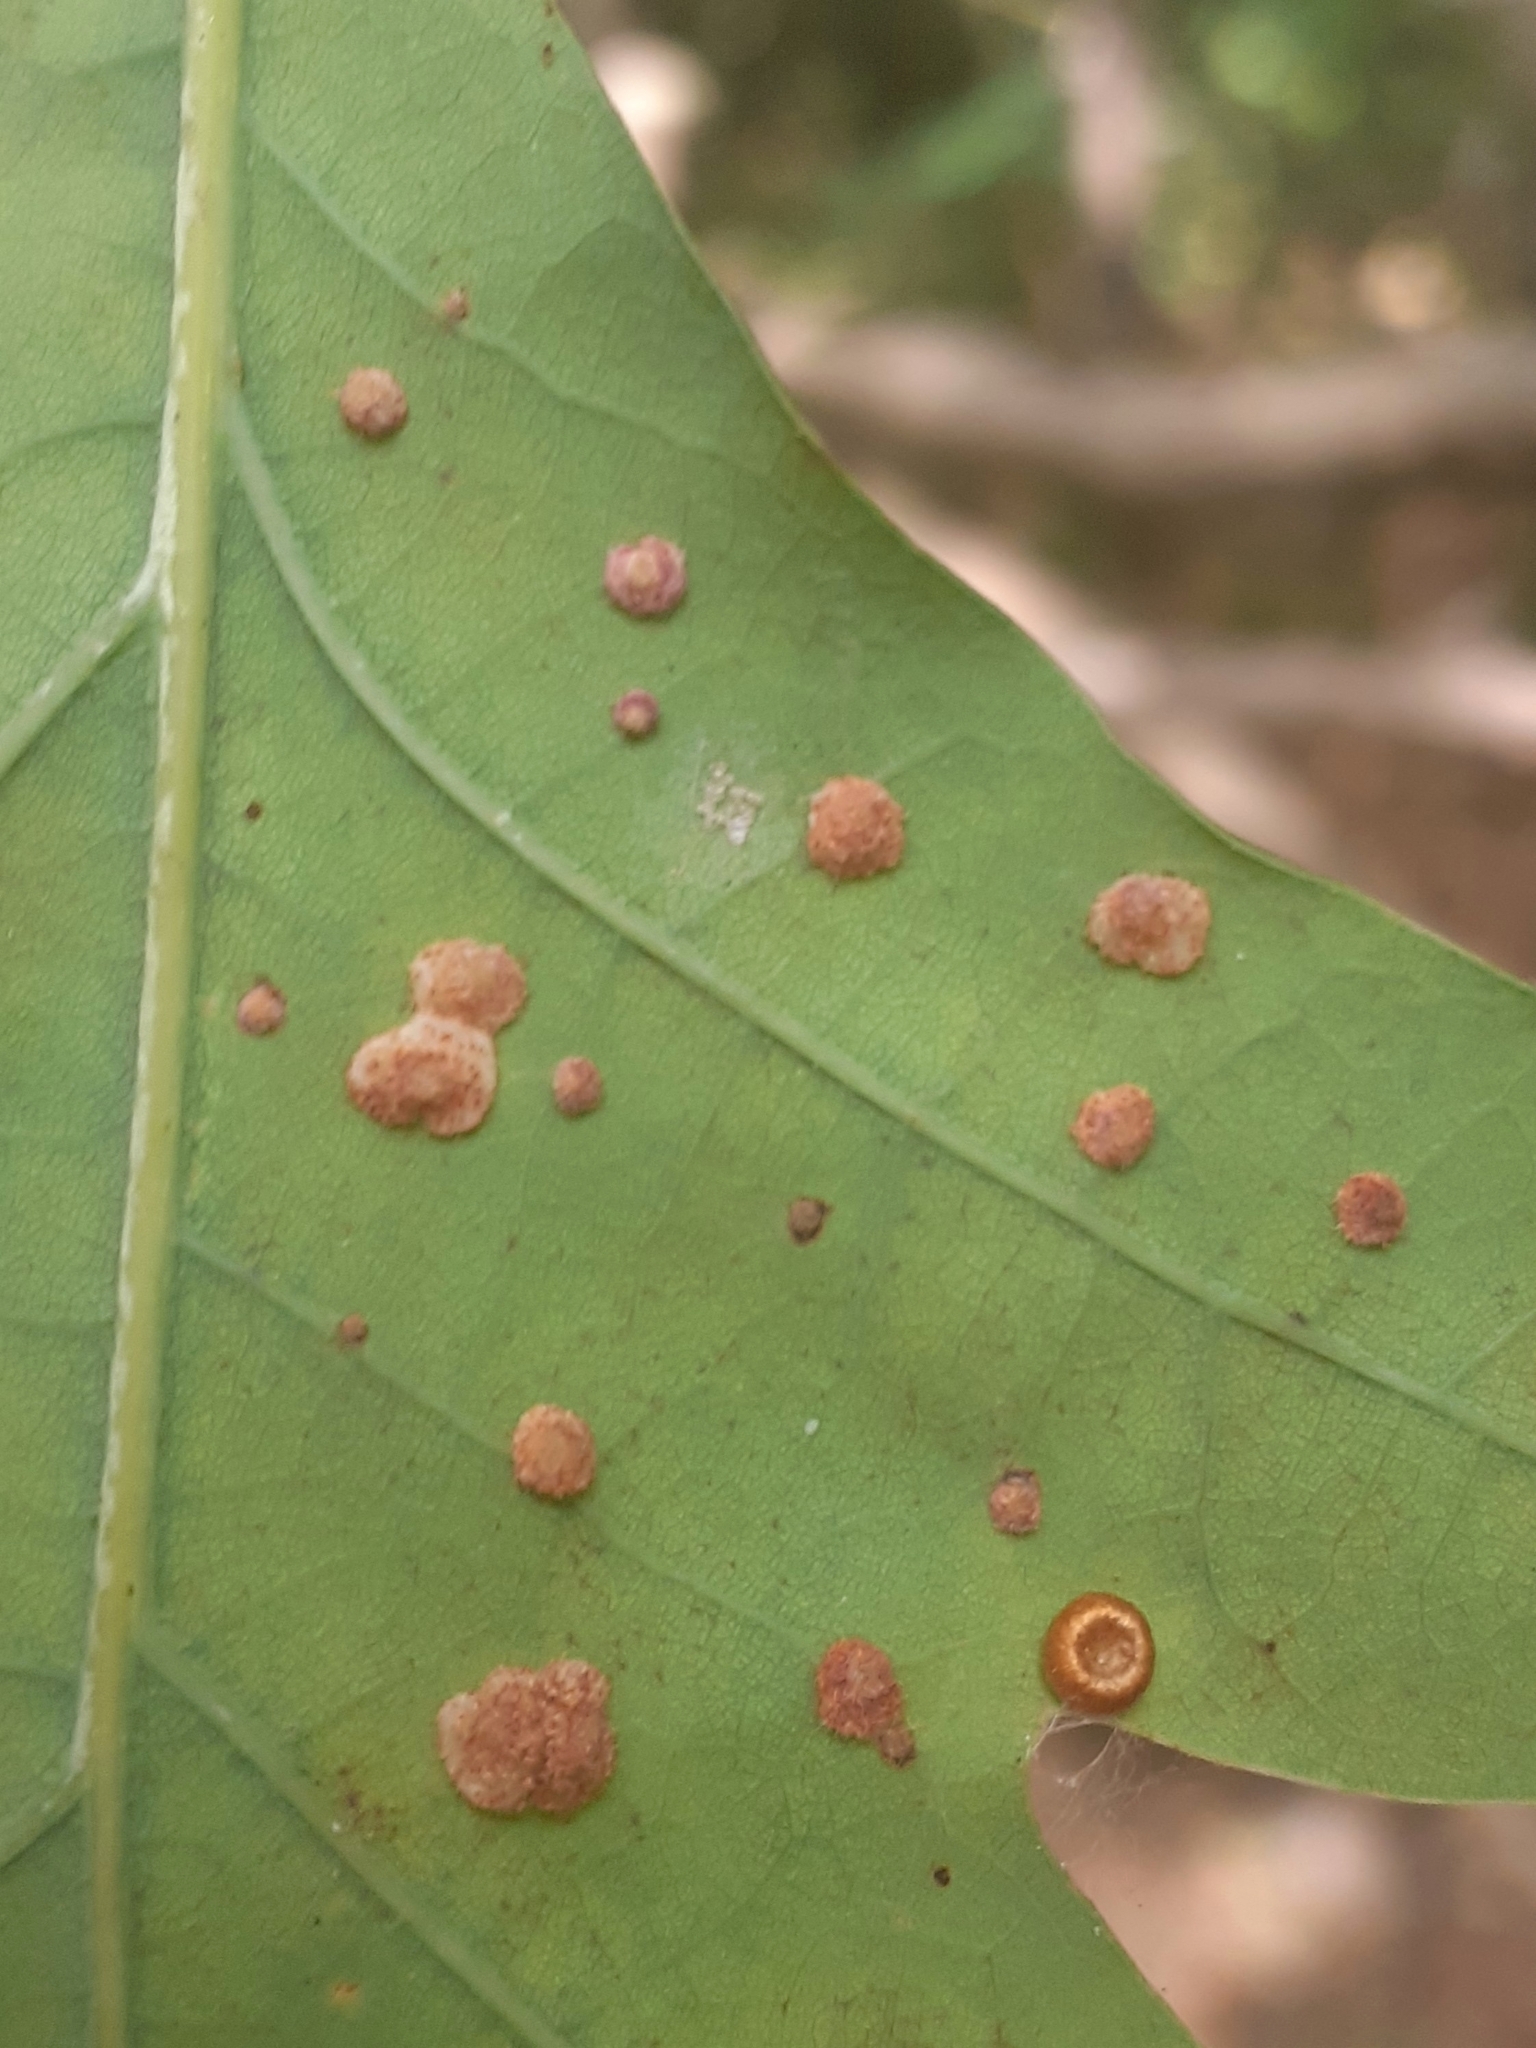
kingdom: Animalia
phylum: Arthropoda
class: Insecta
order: Hymenoptera
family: Cynipidae
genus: Neuroterus
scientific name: Neuroterus quercusbaccarum
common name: Common spangle gall
